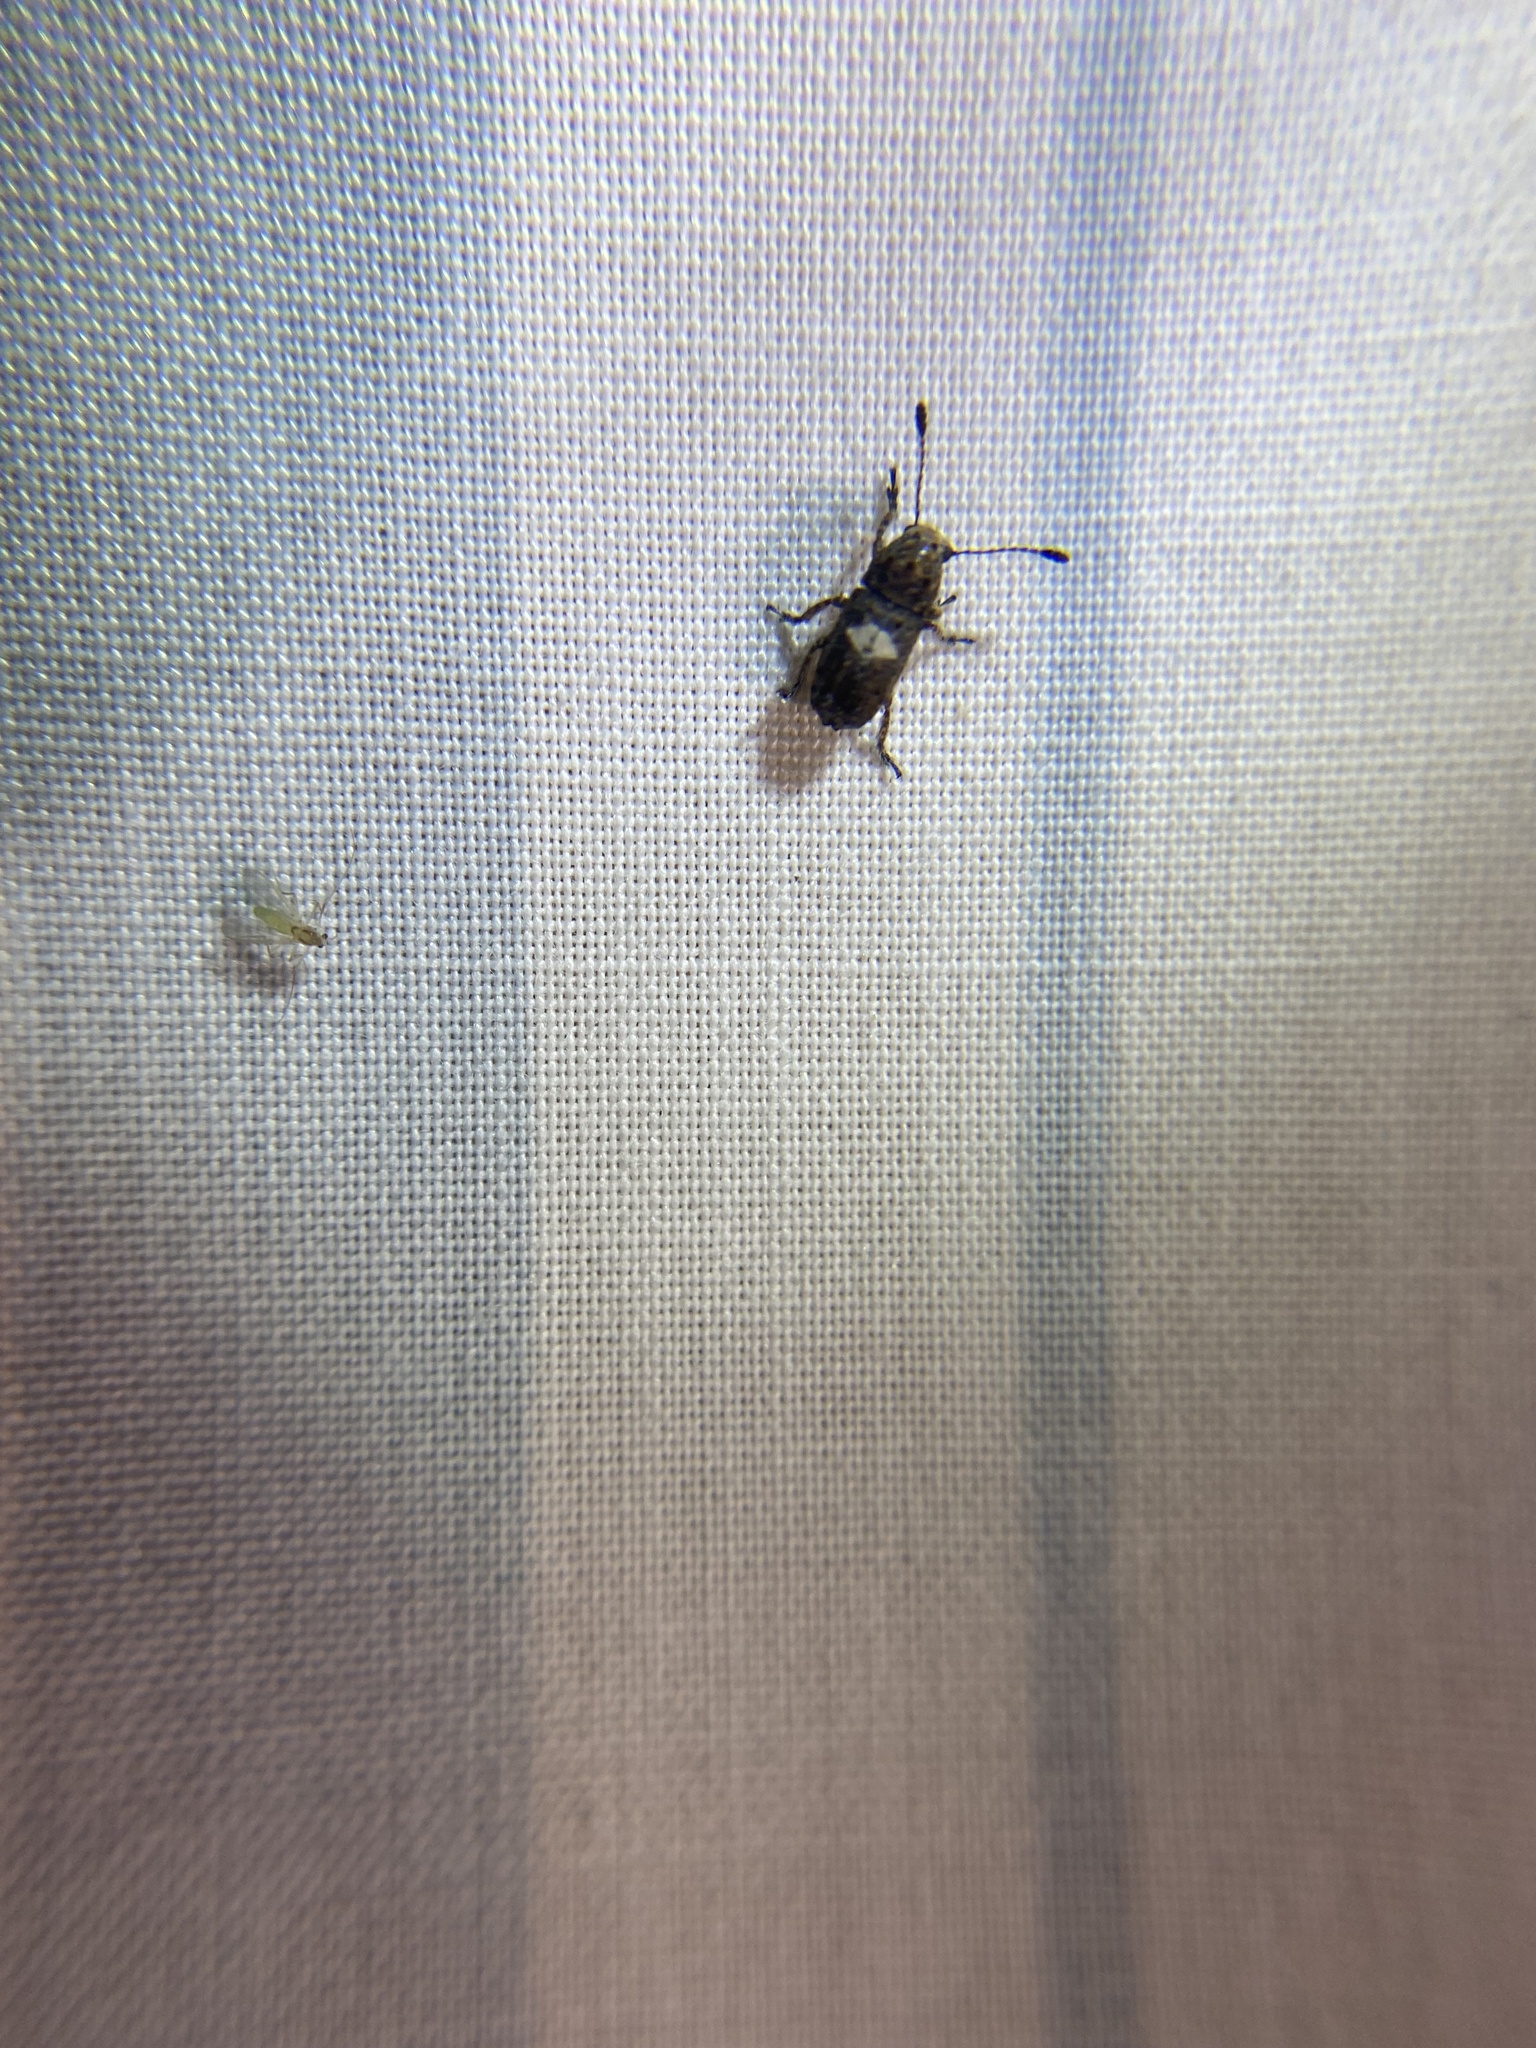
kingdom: Animalia
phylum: Arthropoda
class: Insecta
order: Coleoptera
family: Anthribidae
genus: Toxonotus
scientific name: Toxonotus cornutus
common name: Fungus weevil
